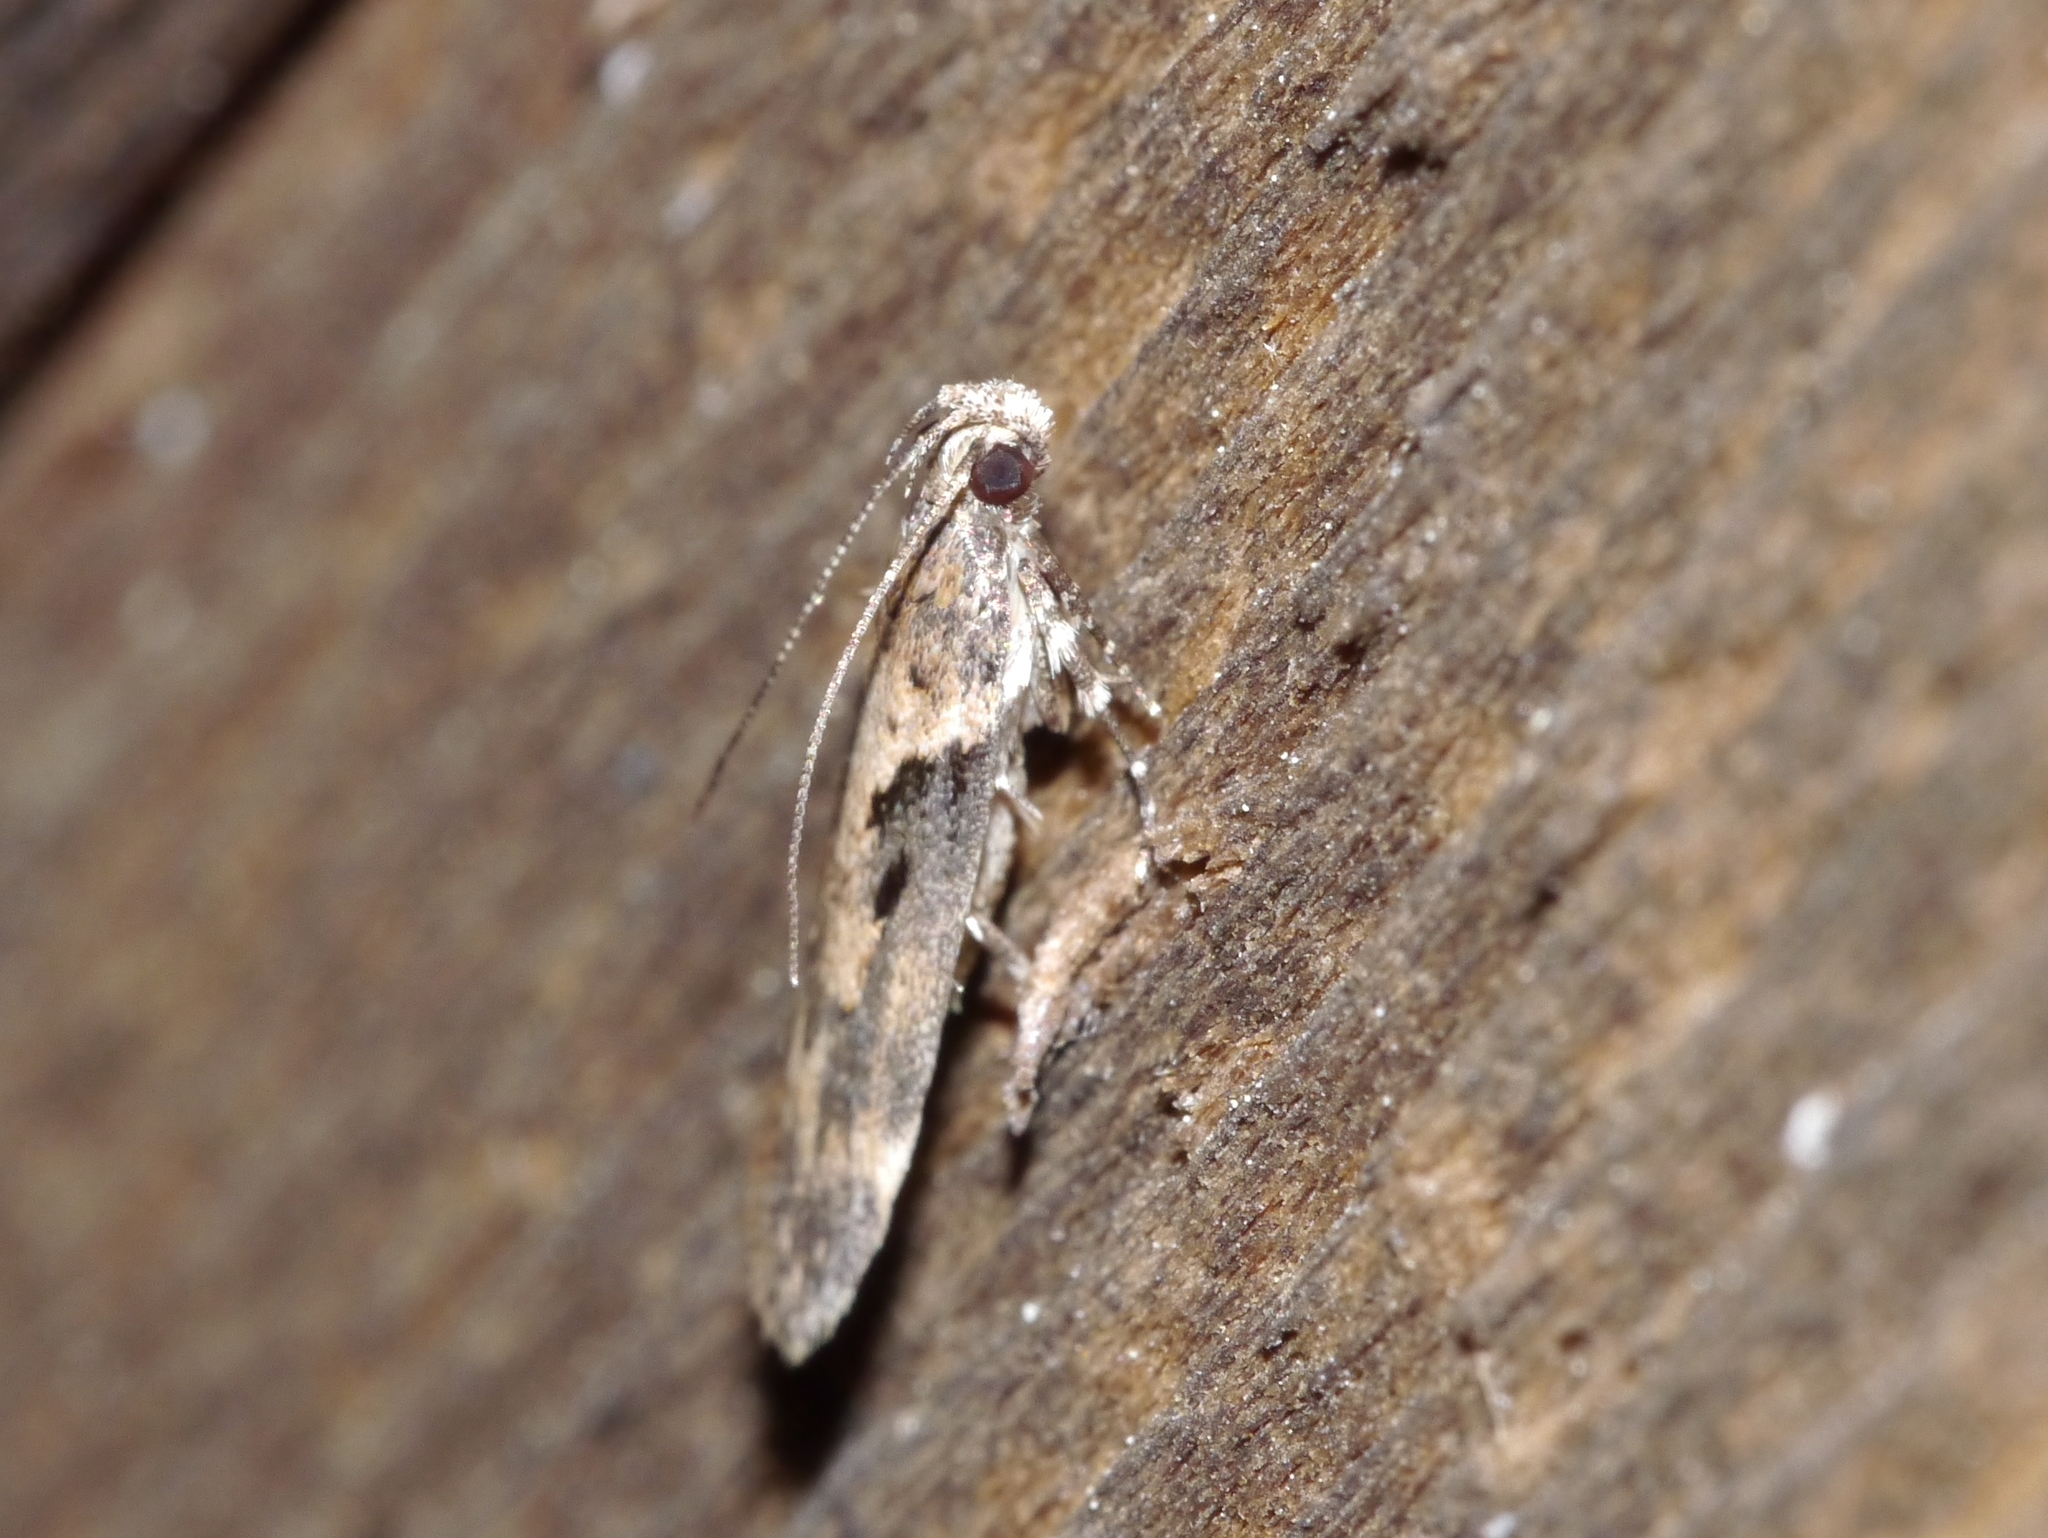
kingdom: Animalia
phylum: Arthropoda
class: Insecta
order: Lepidoptera
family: Gelechiidae
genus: Chionodes
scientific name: Chionodes mediofuscella
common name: Black-smudged chionodes moth
